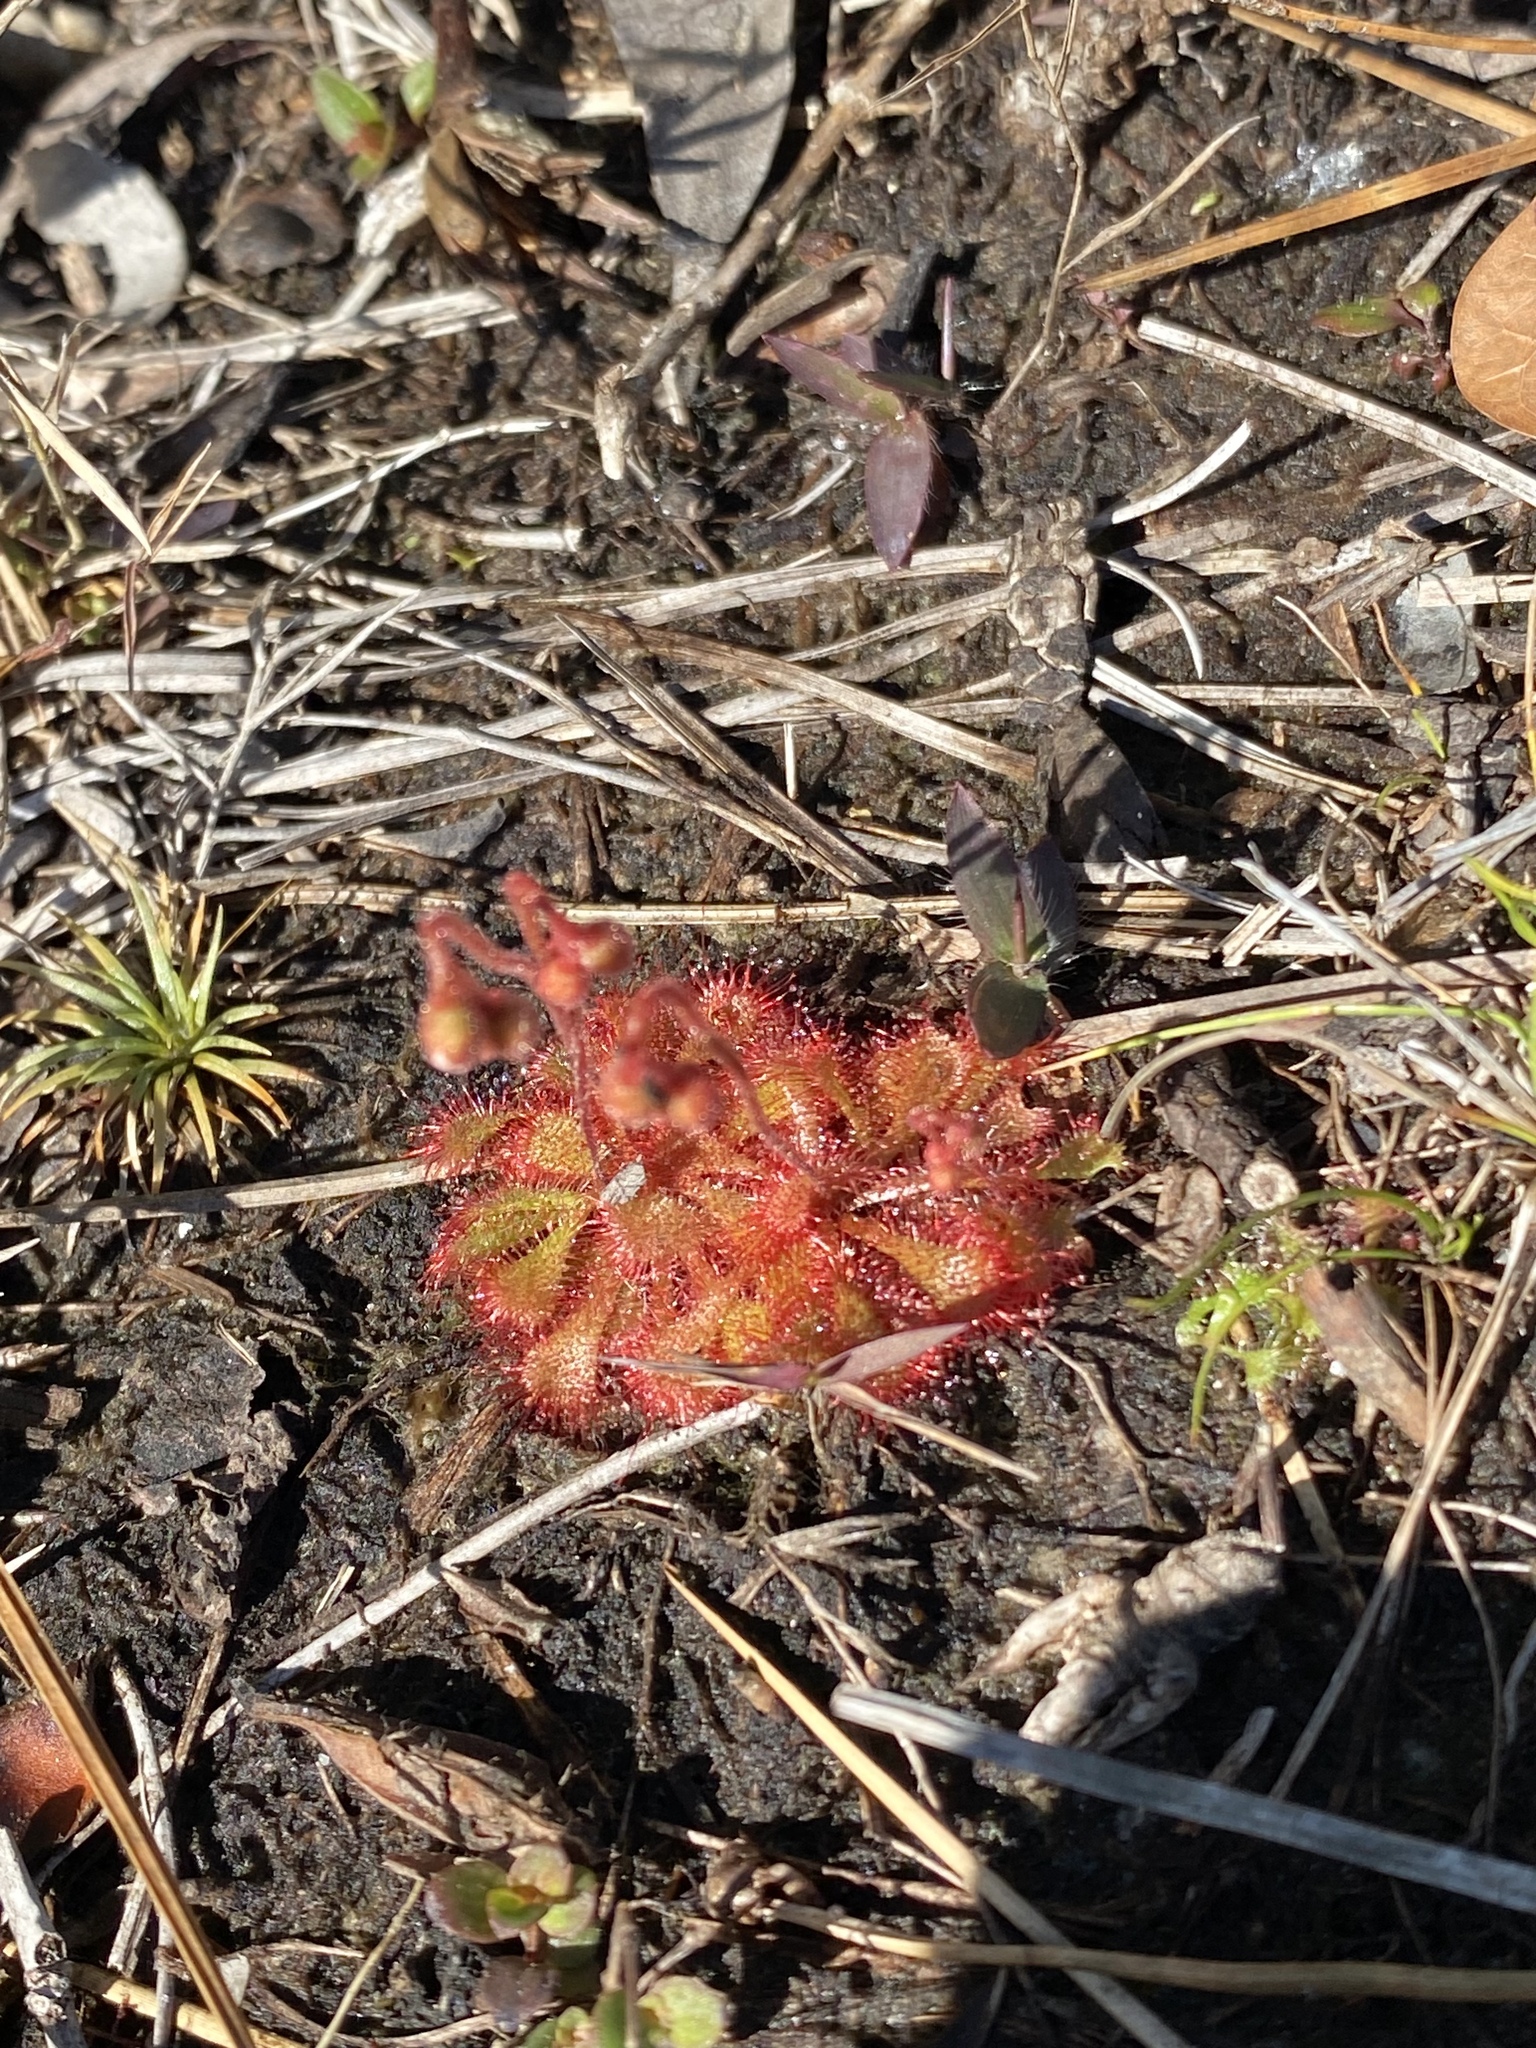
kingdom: Plantae
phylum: Tracheophyta
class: Magnoliopsida
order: Caryophyllales
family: Droseraceae
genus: Drosera
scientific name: Drosera brevifolia
